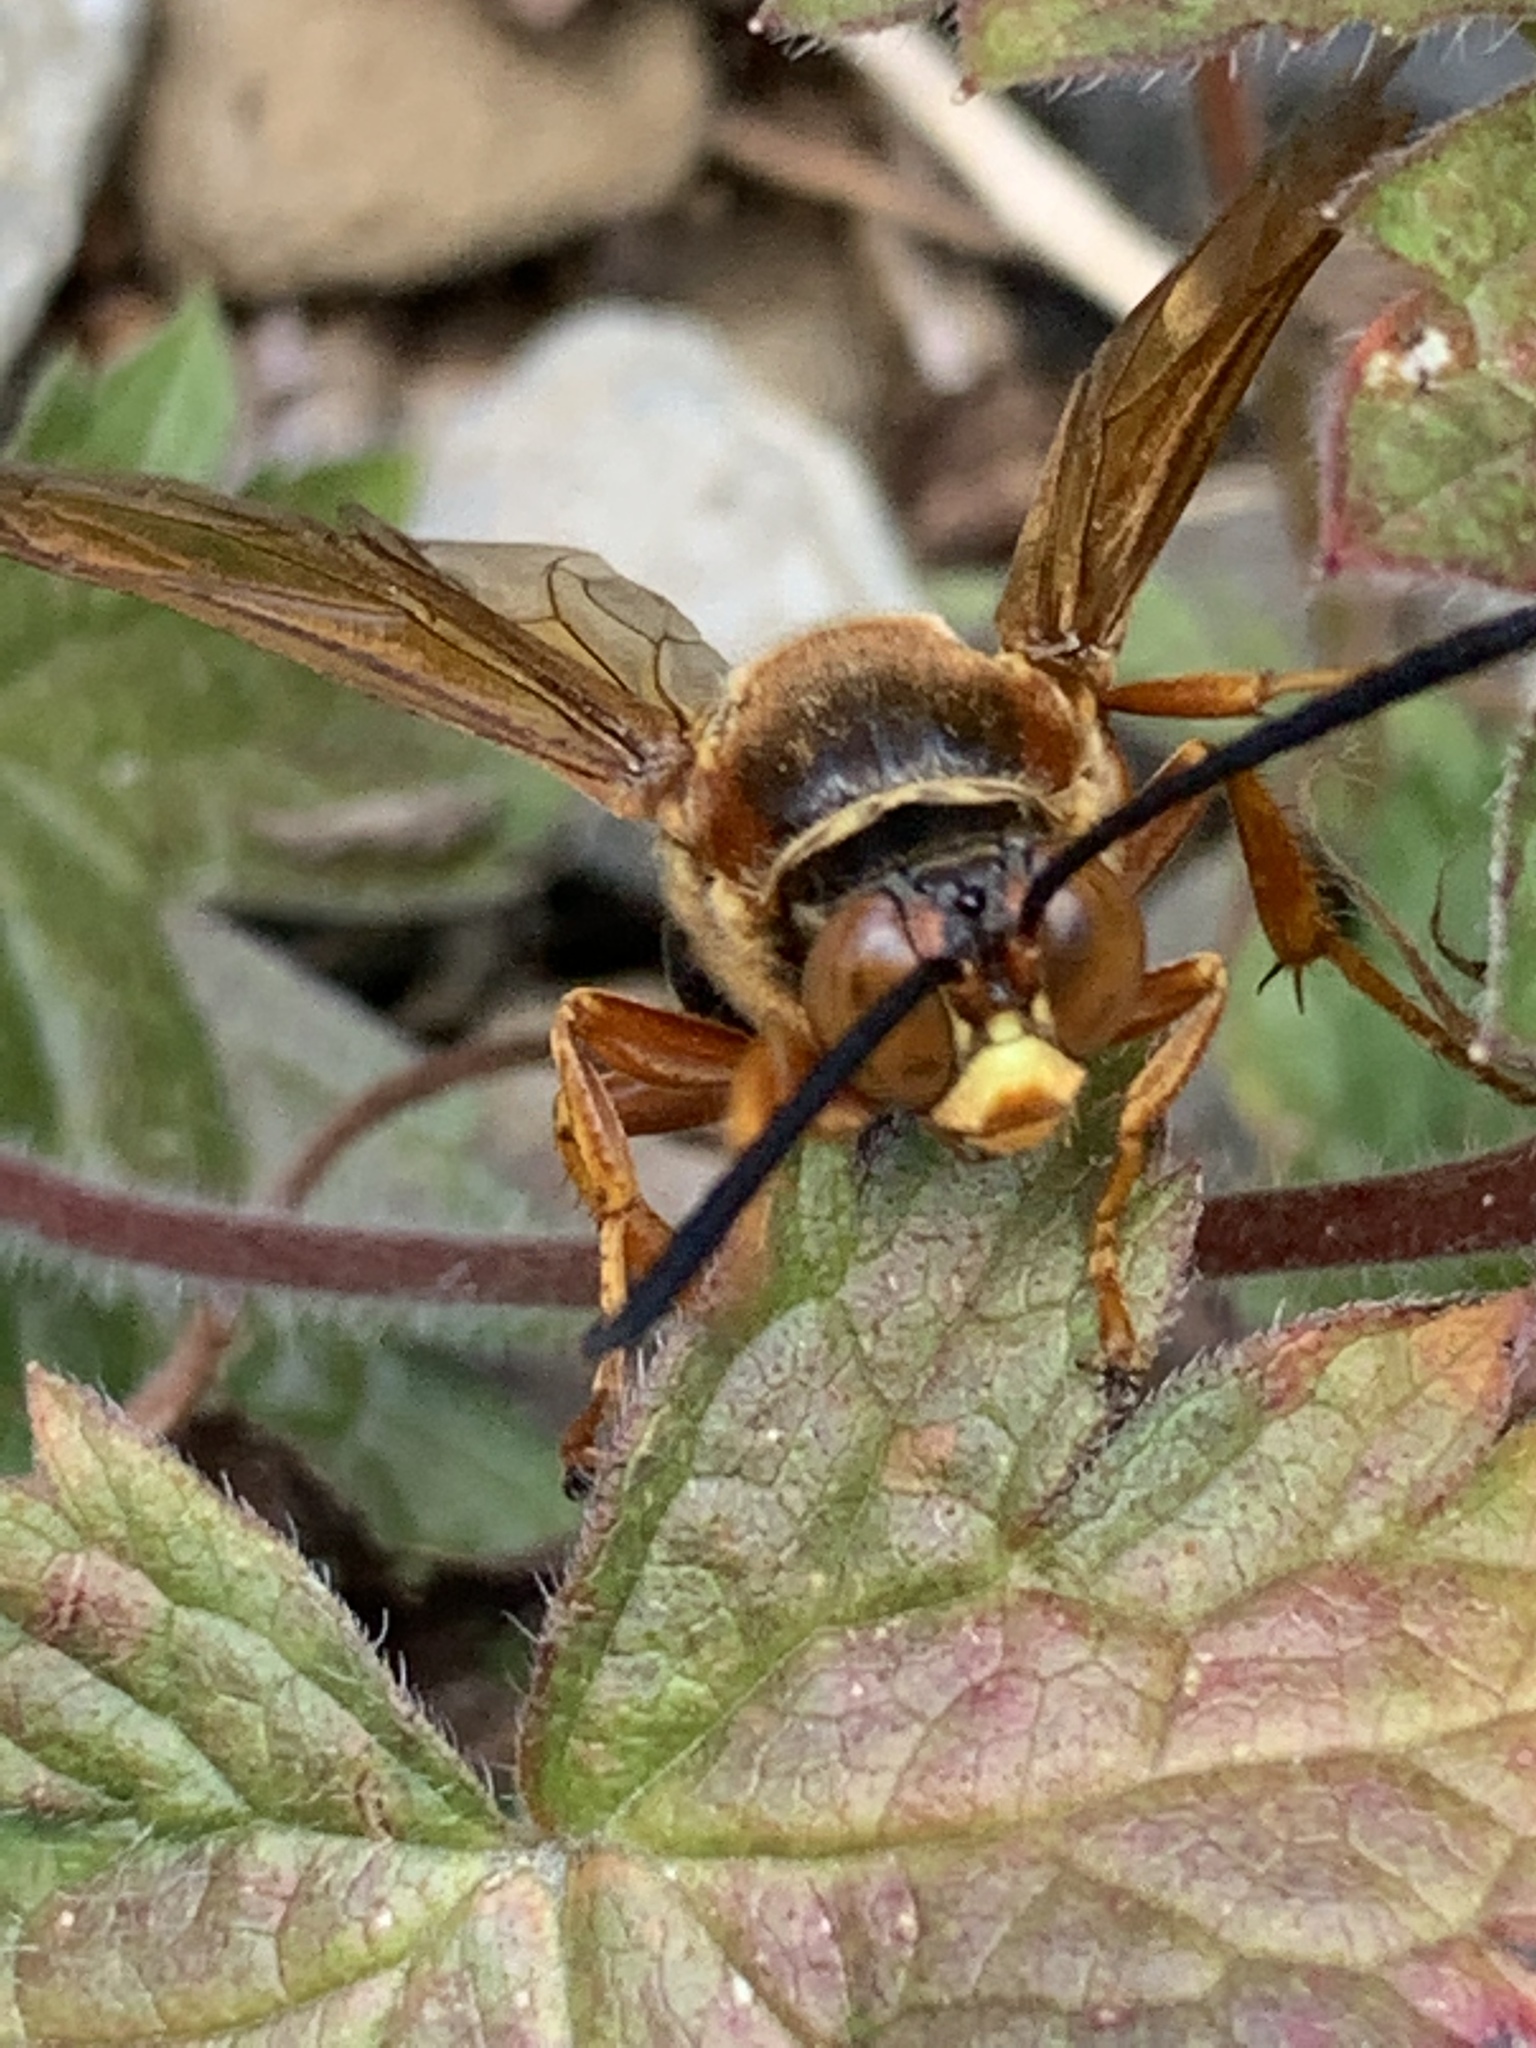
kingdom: Animalia
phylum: Arthropoda
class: Insecta
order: Hymenoptera
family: Crabronidae
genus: Sphecius
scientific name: Sphecius speciosus
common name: Cicada killer
